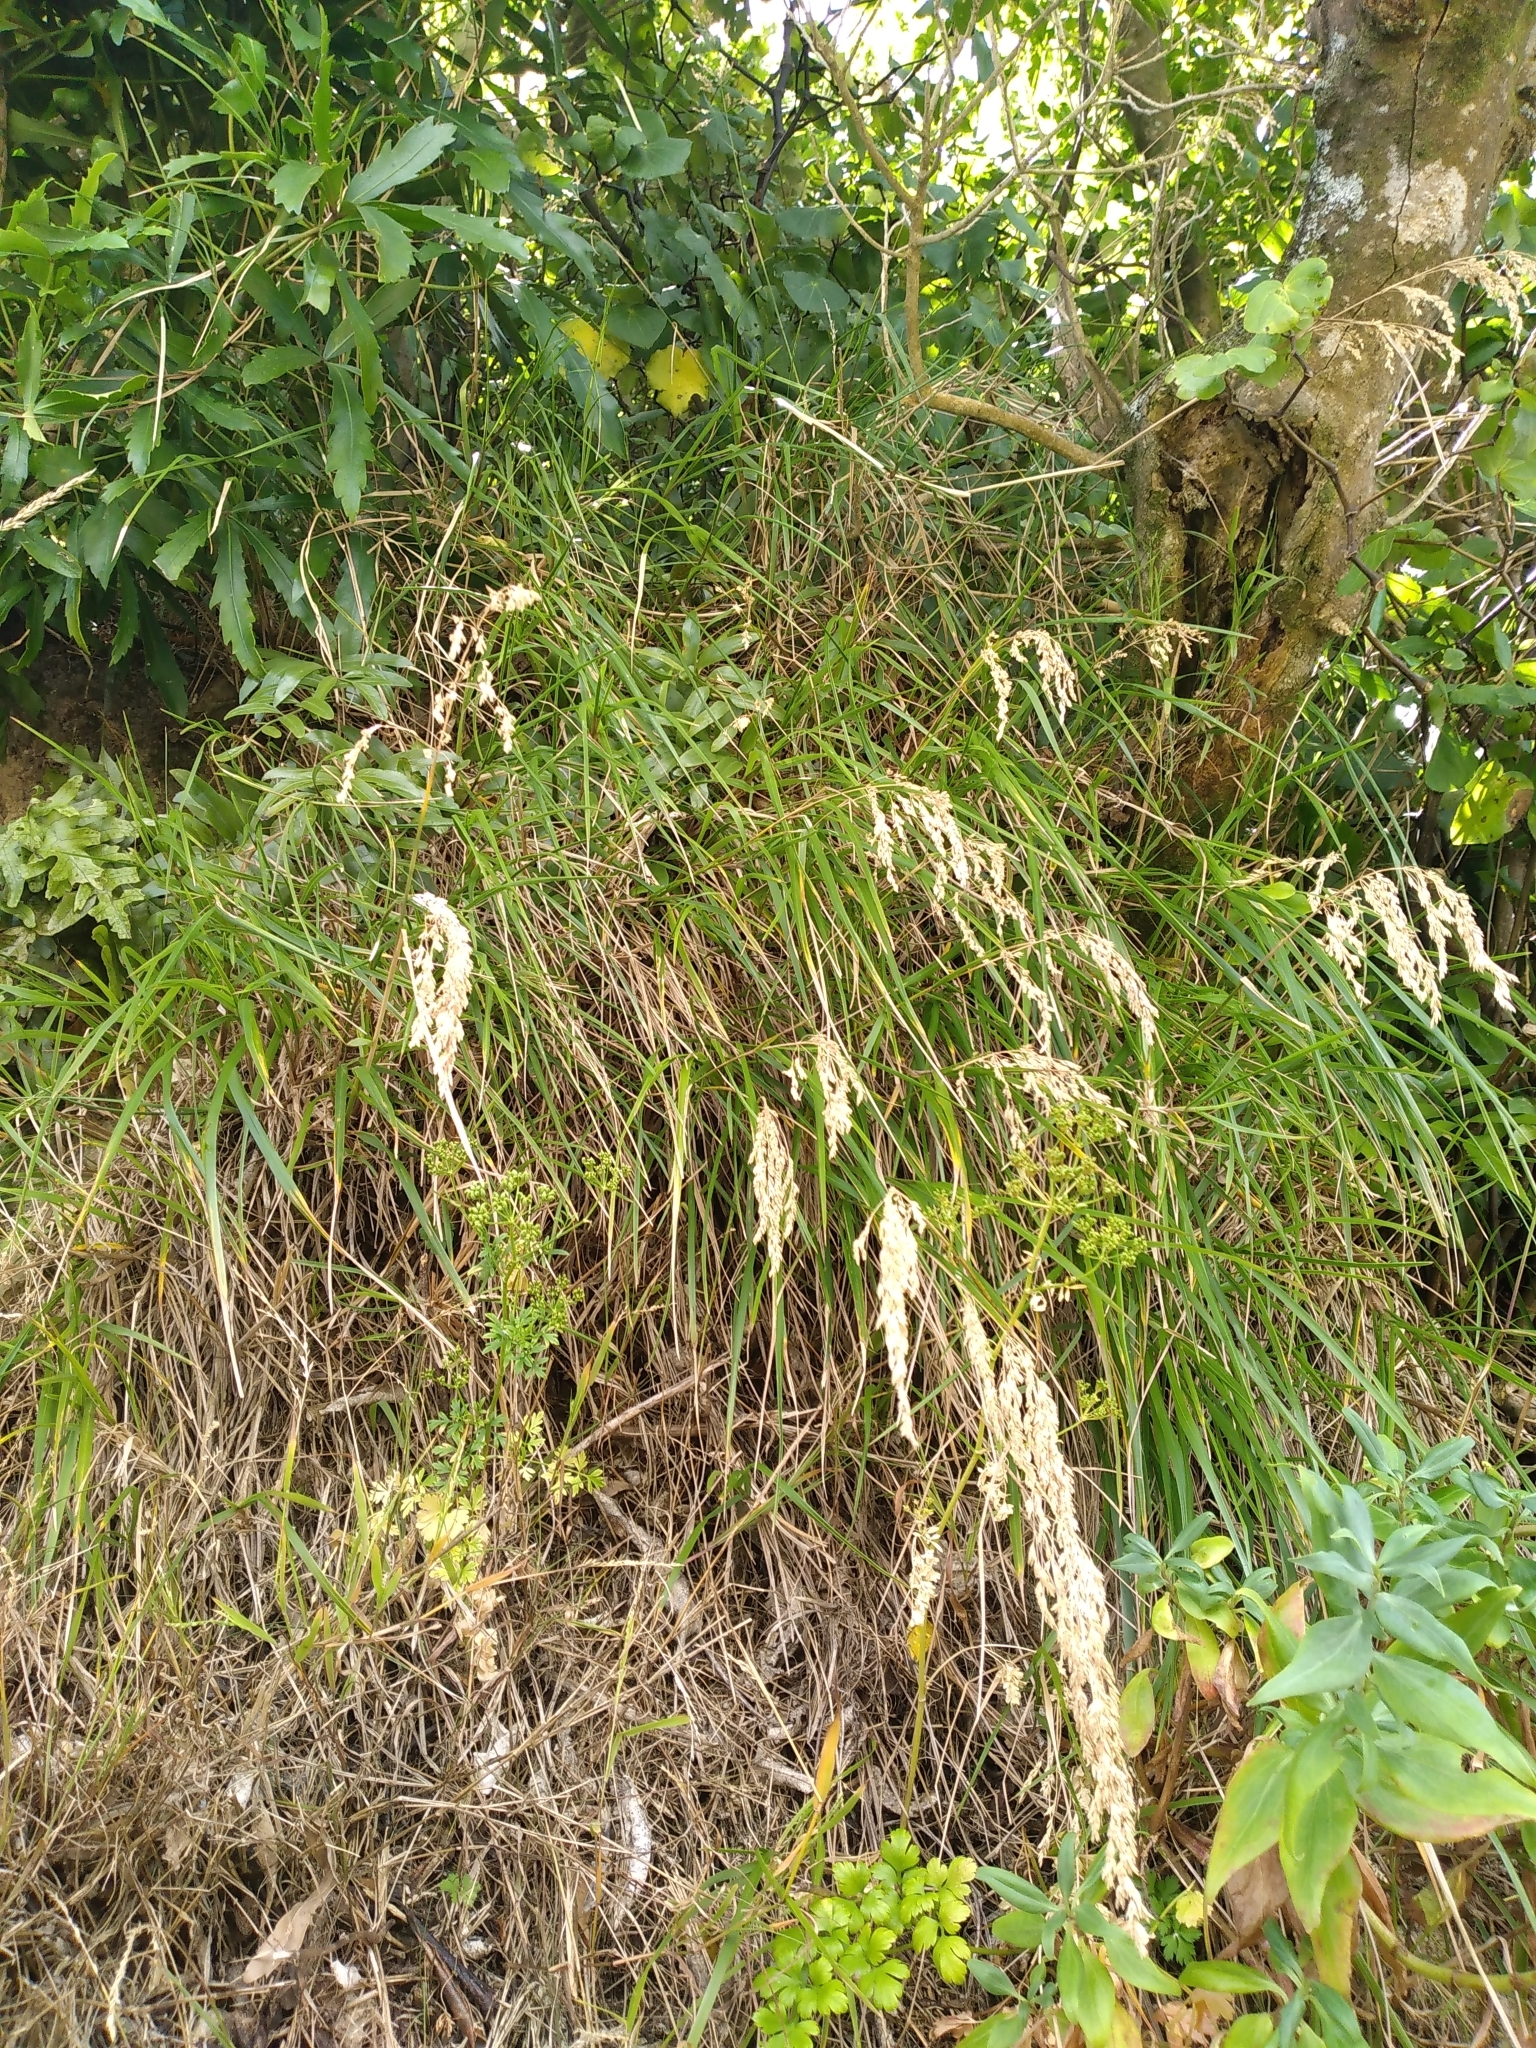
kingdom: Plantae
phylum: Tracheophyta
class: Liliopsida
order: Poales
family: Poaceae
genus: Poa
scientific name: Poa anceps
